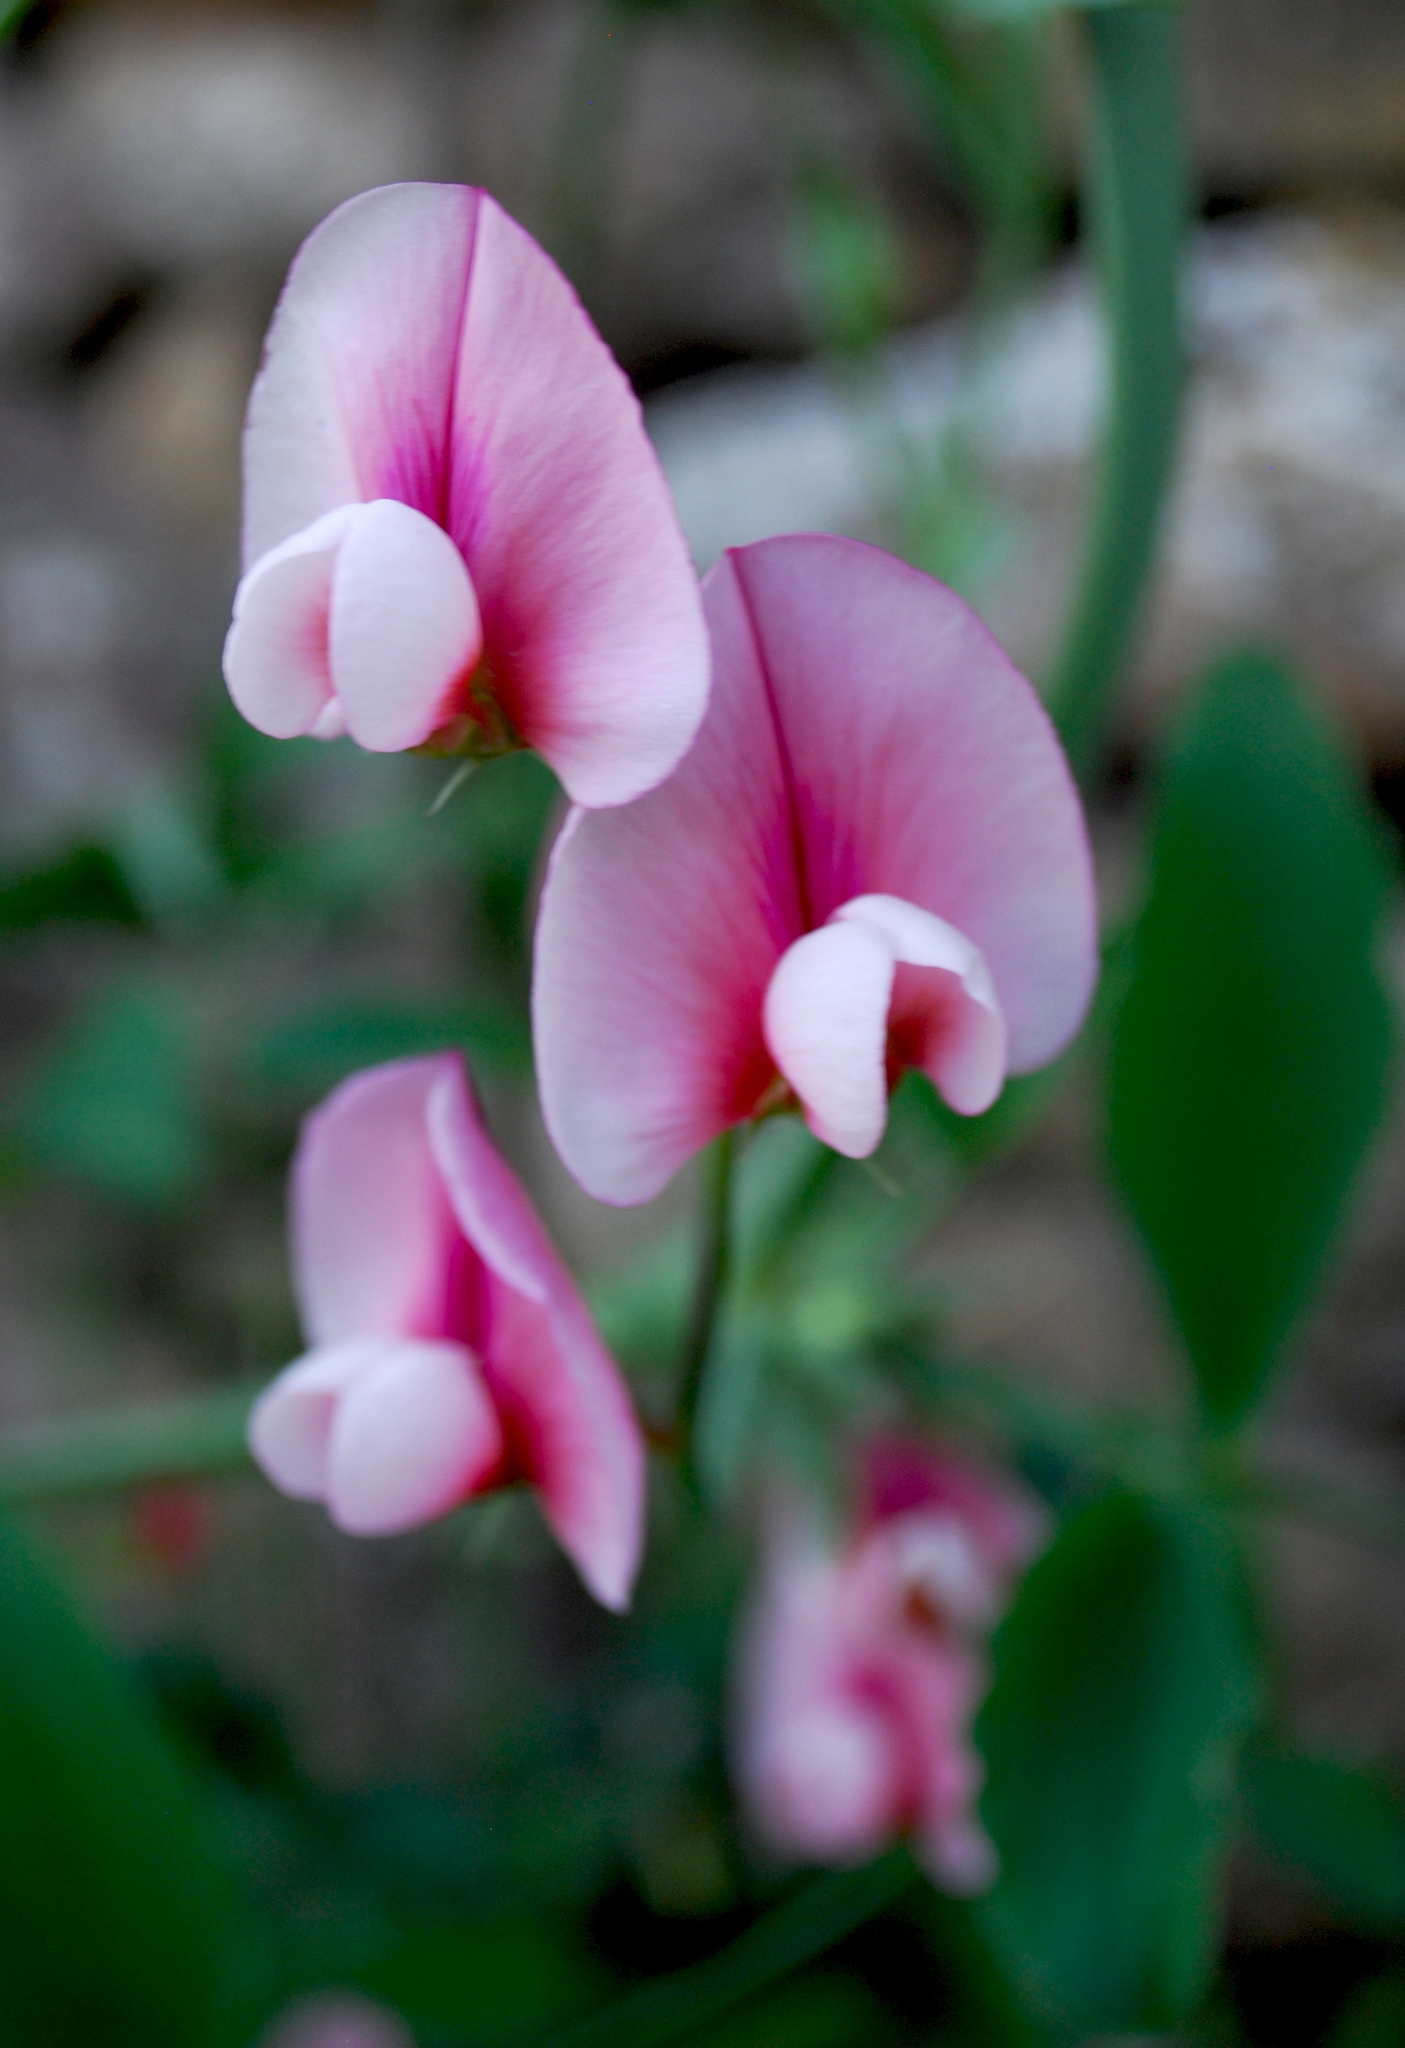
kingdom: Plantae
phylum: Tracheophyta
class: Magnoliopsida
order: Fabales
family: Fabaceae
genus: Lathyrus
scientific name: Lathyrus tingitanus
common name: Tangier pea
